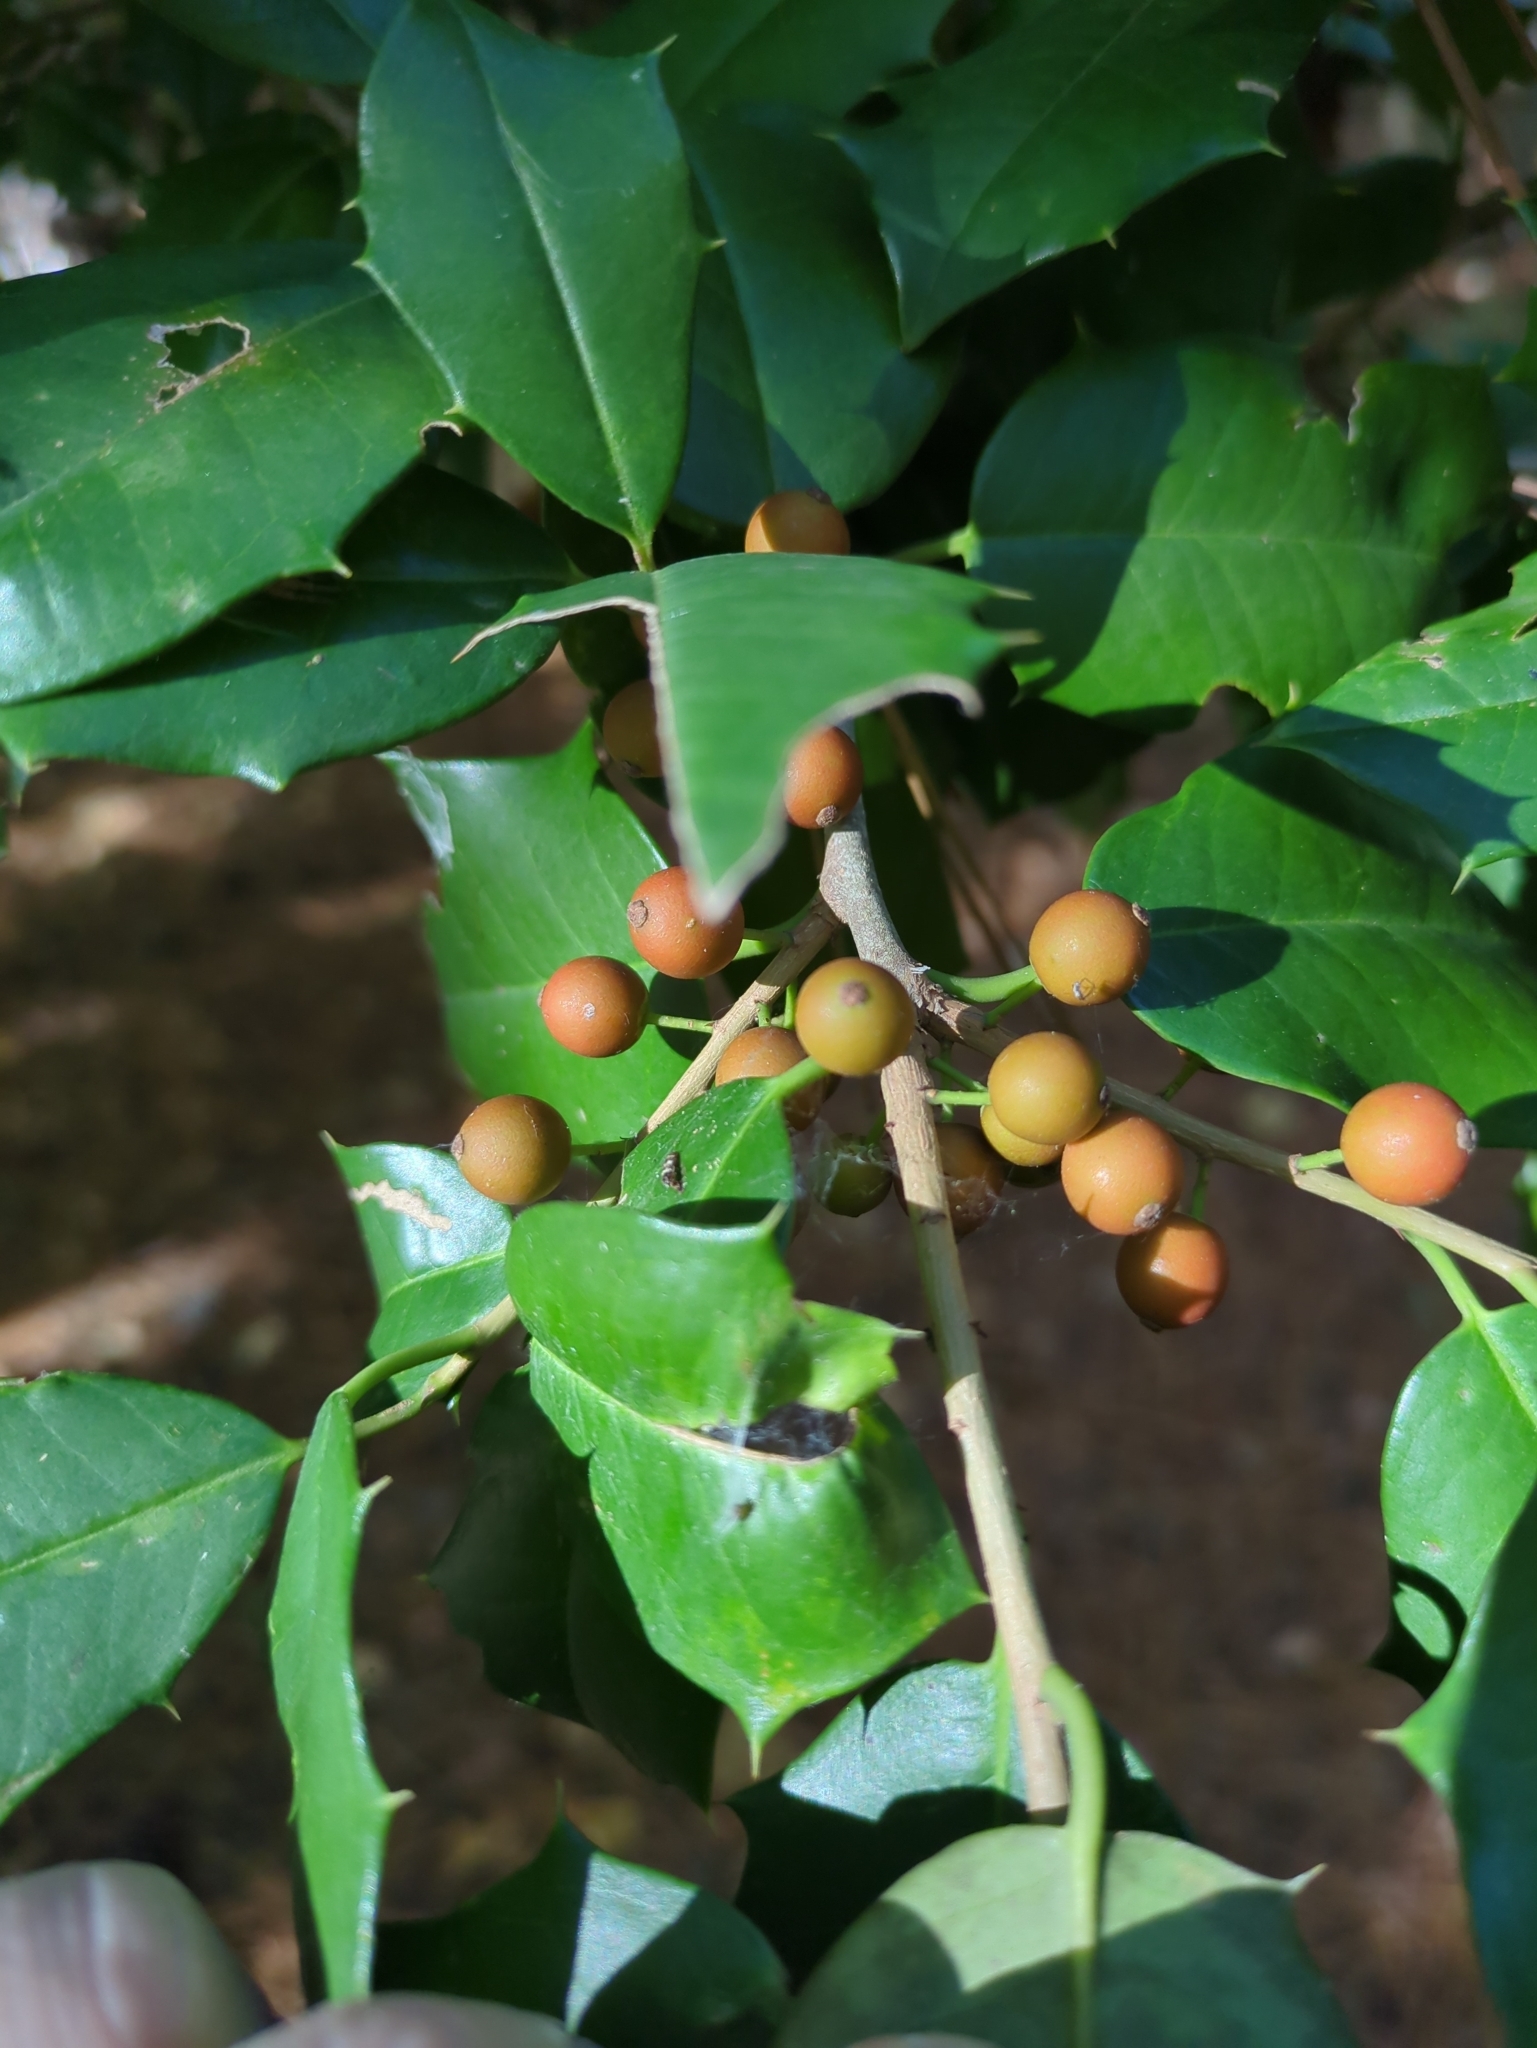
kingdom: Plantae
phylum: Tracheophyta
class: Magnoliopsida
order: Aquifoliales
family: Aquifoliaceae
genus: Ilex
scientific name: Ilex opaca
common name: American holly
